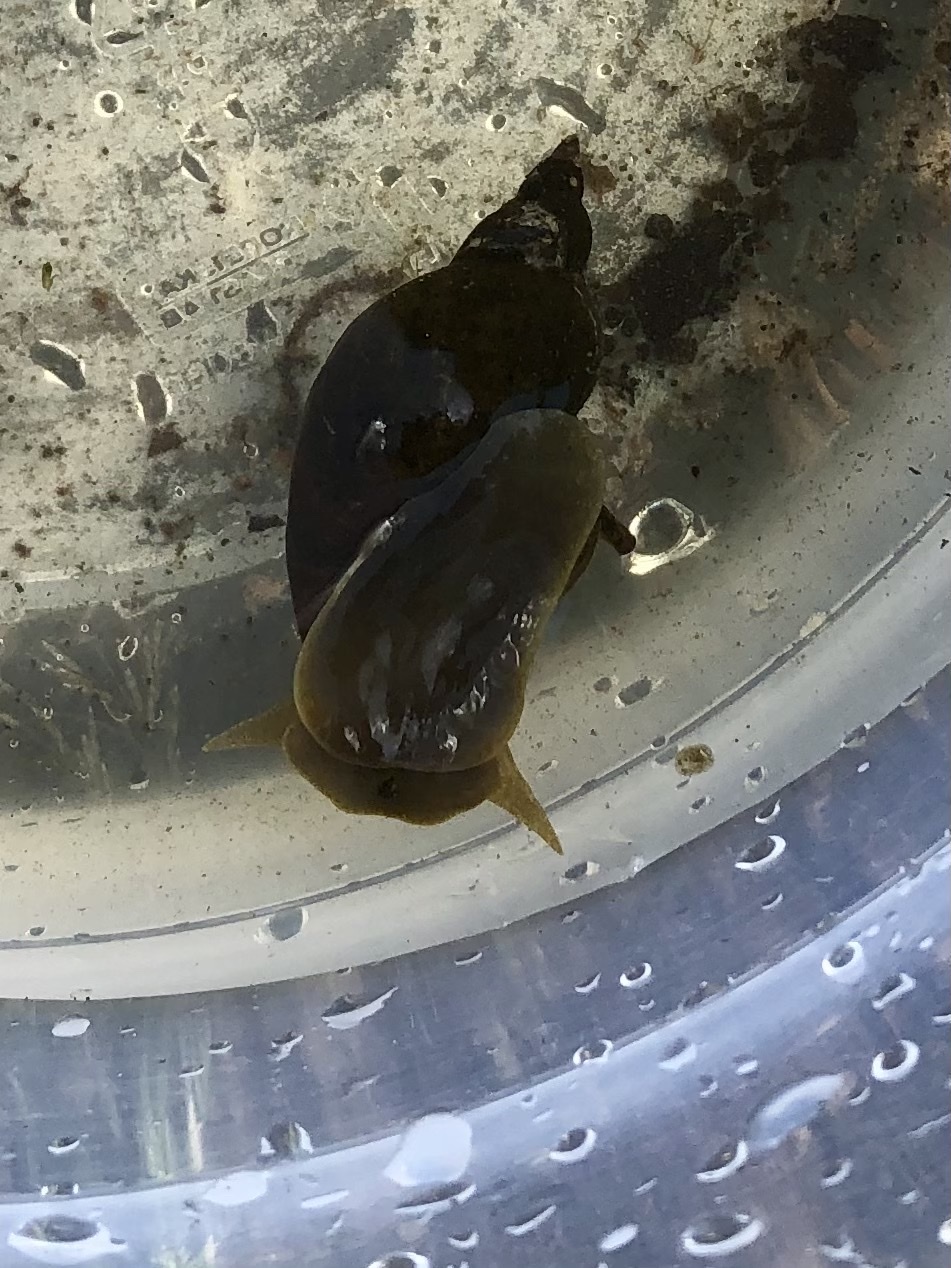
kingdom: Animalia
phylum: Mollusca
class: Gastropoda
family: Lymnaeidae
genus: Lymnaea
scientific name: Lymnaea stagnalis
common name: Great pond snail
